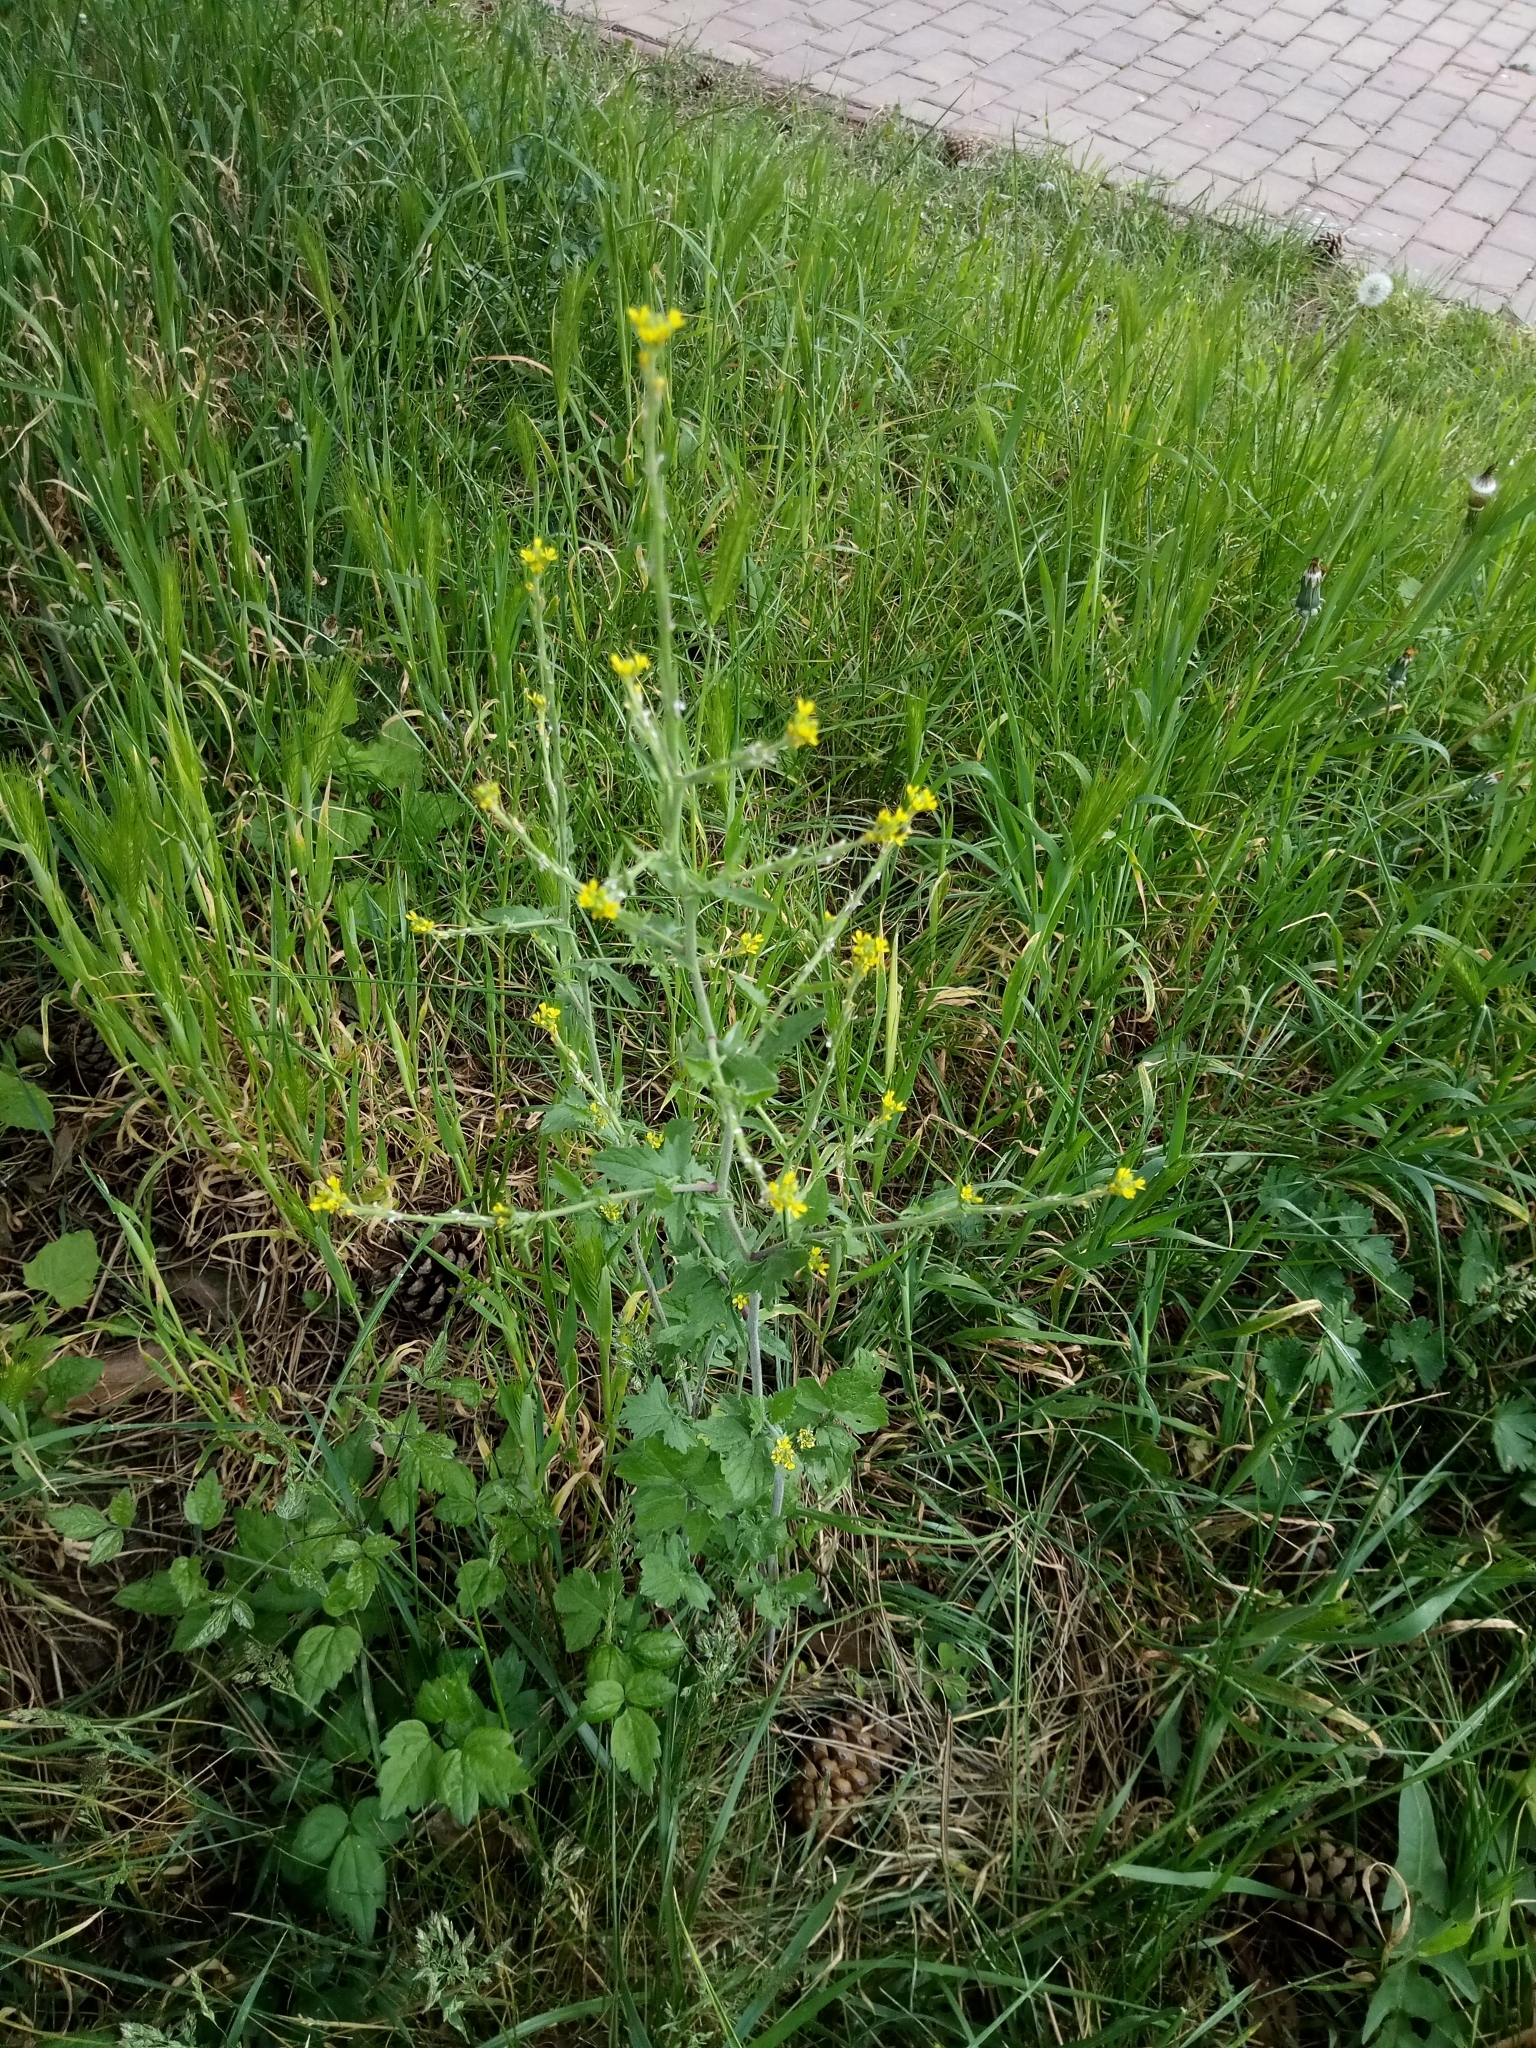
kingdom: Plantae
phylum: Tracheophyta
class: Magnoliopsida
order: Brassicales
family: Brassicaceae
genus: Sisymbrium
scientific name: Sisymbrium officinale
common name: Hedge mustard
